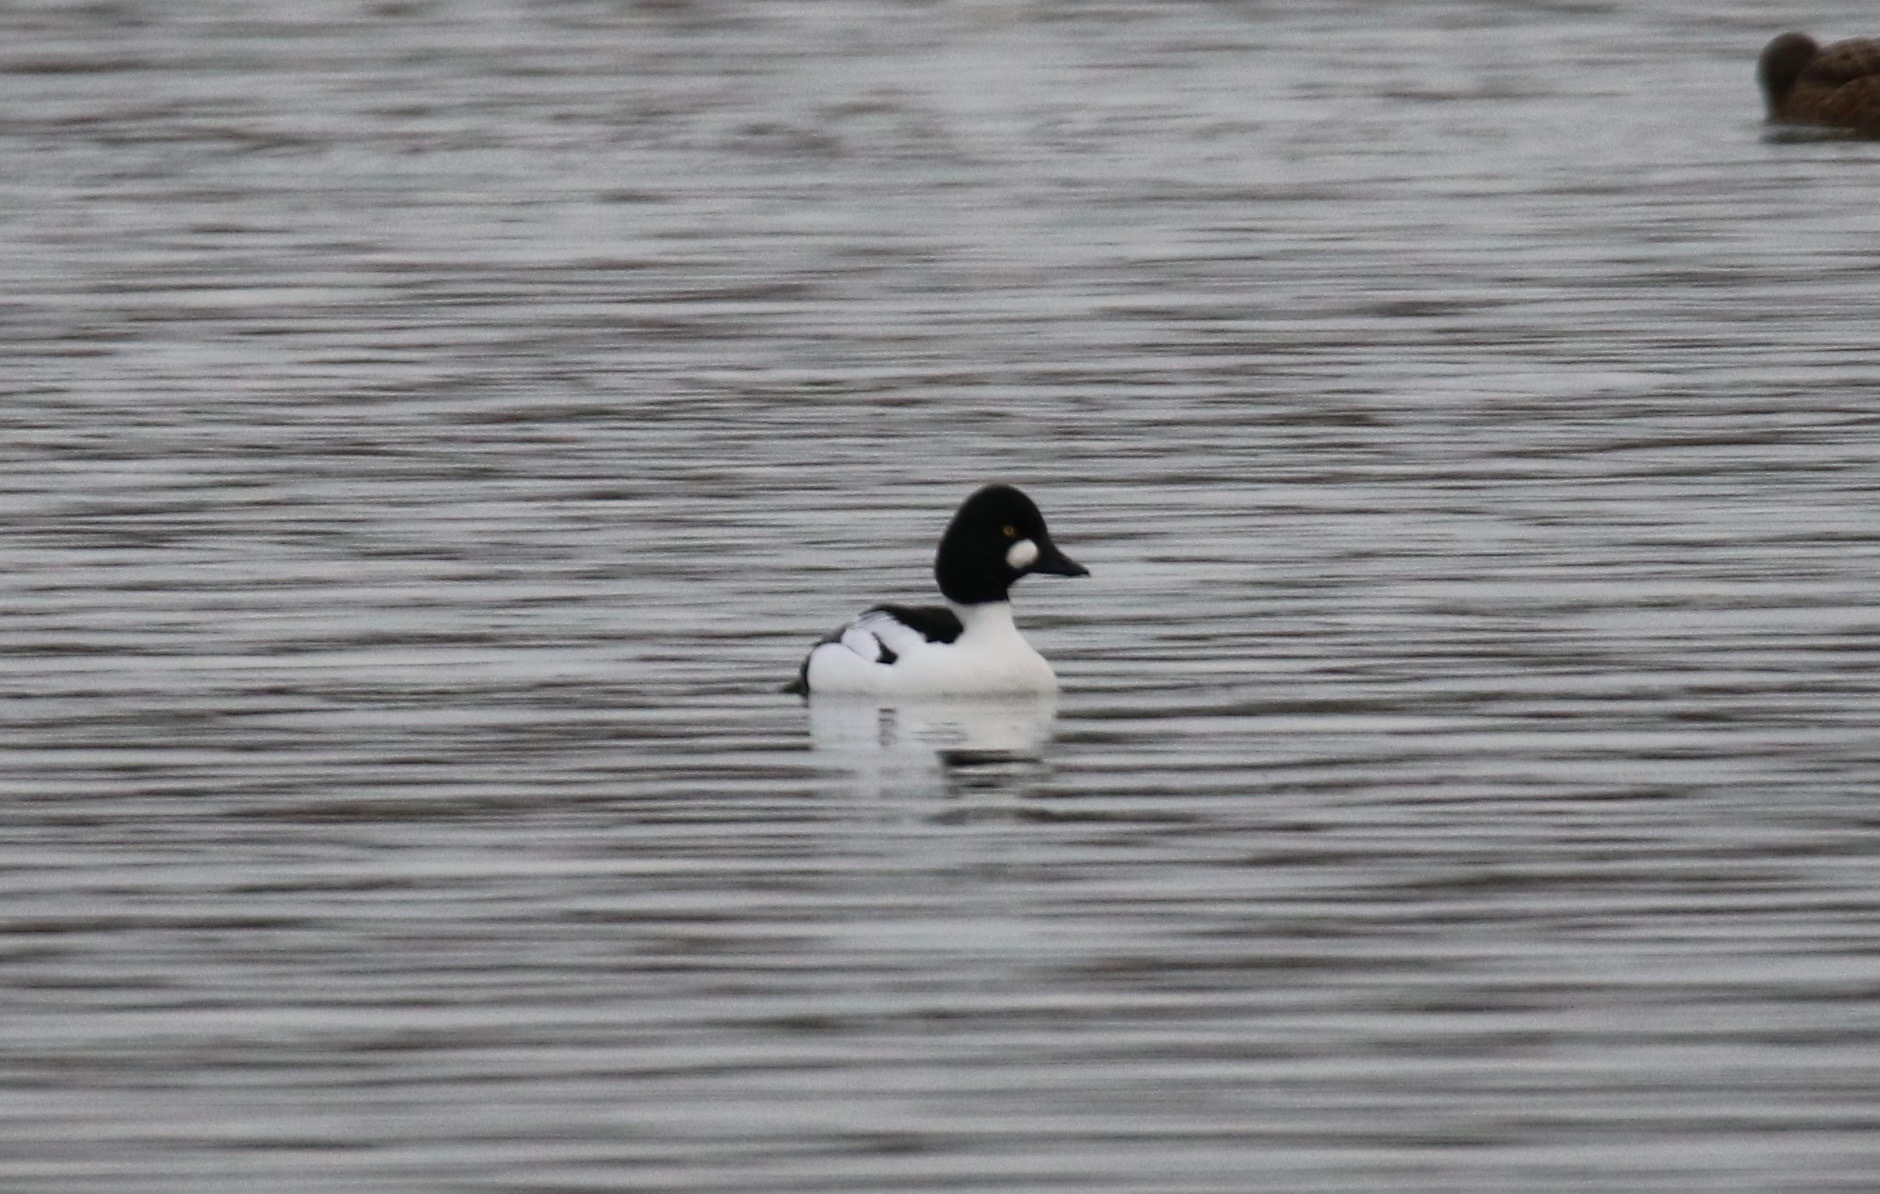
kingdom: Animalia
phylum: Chordata
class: Aves
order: Anseriformes
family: Anatidae
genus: Bucephala
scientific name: Bucephala clangula
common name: Common goldeneye
